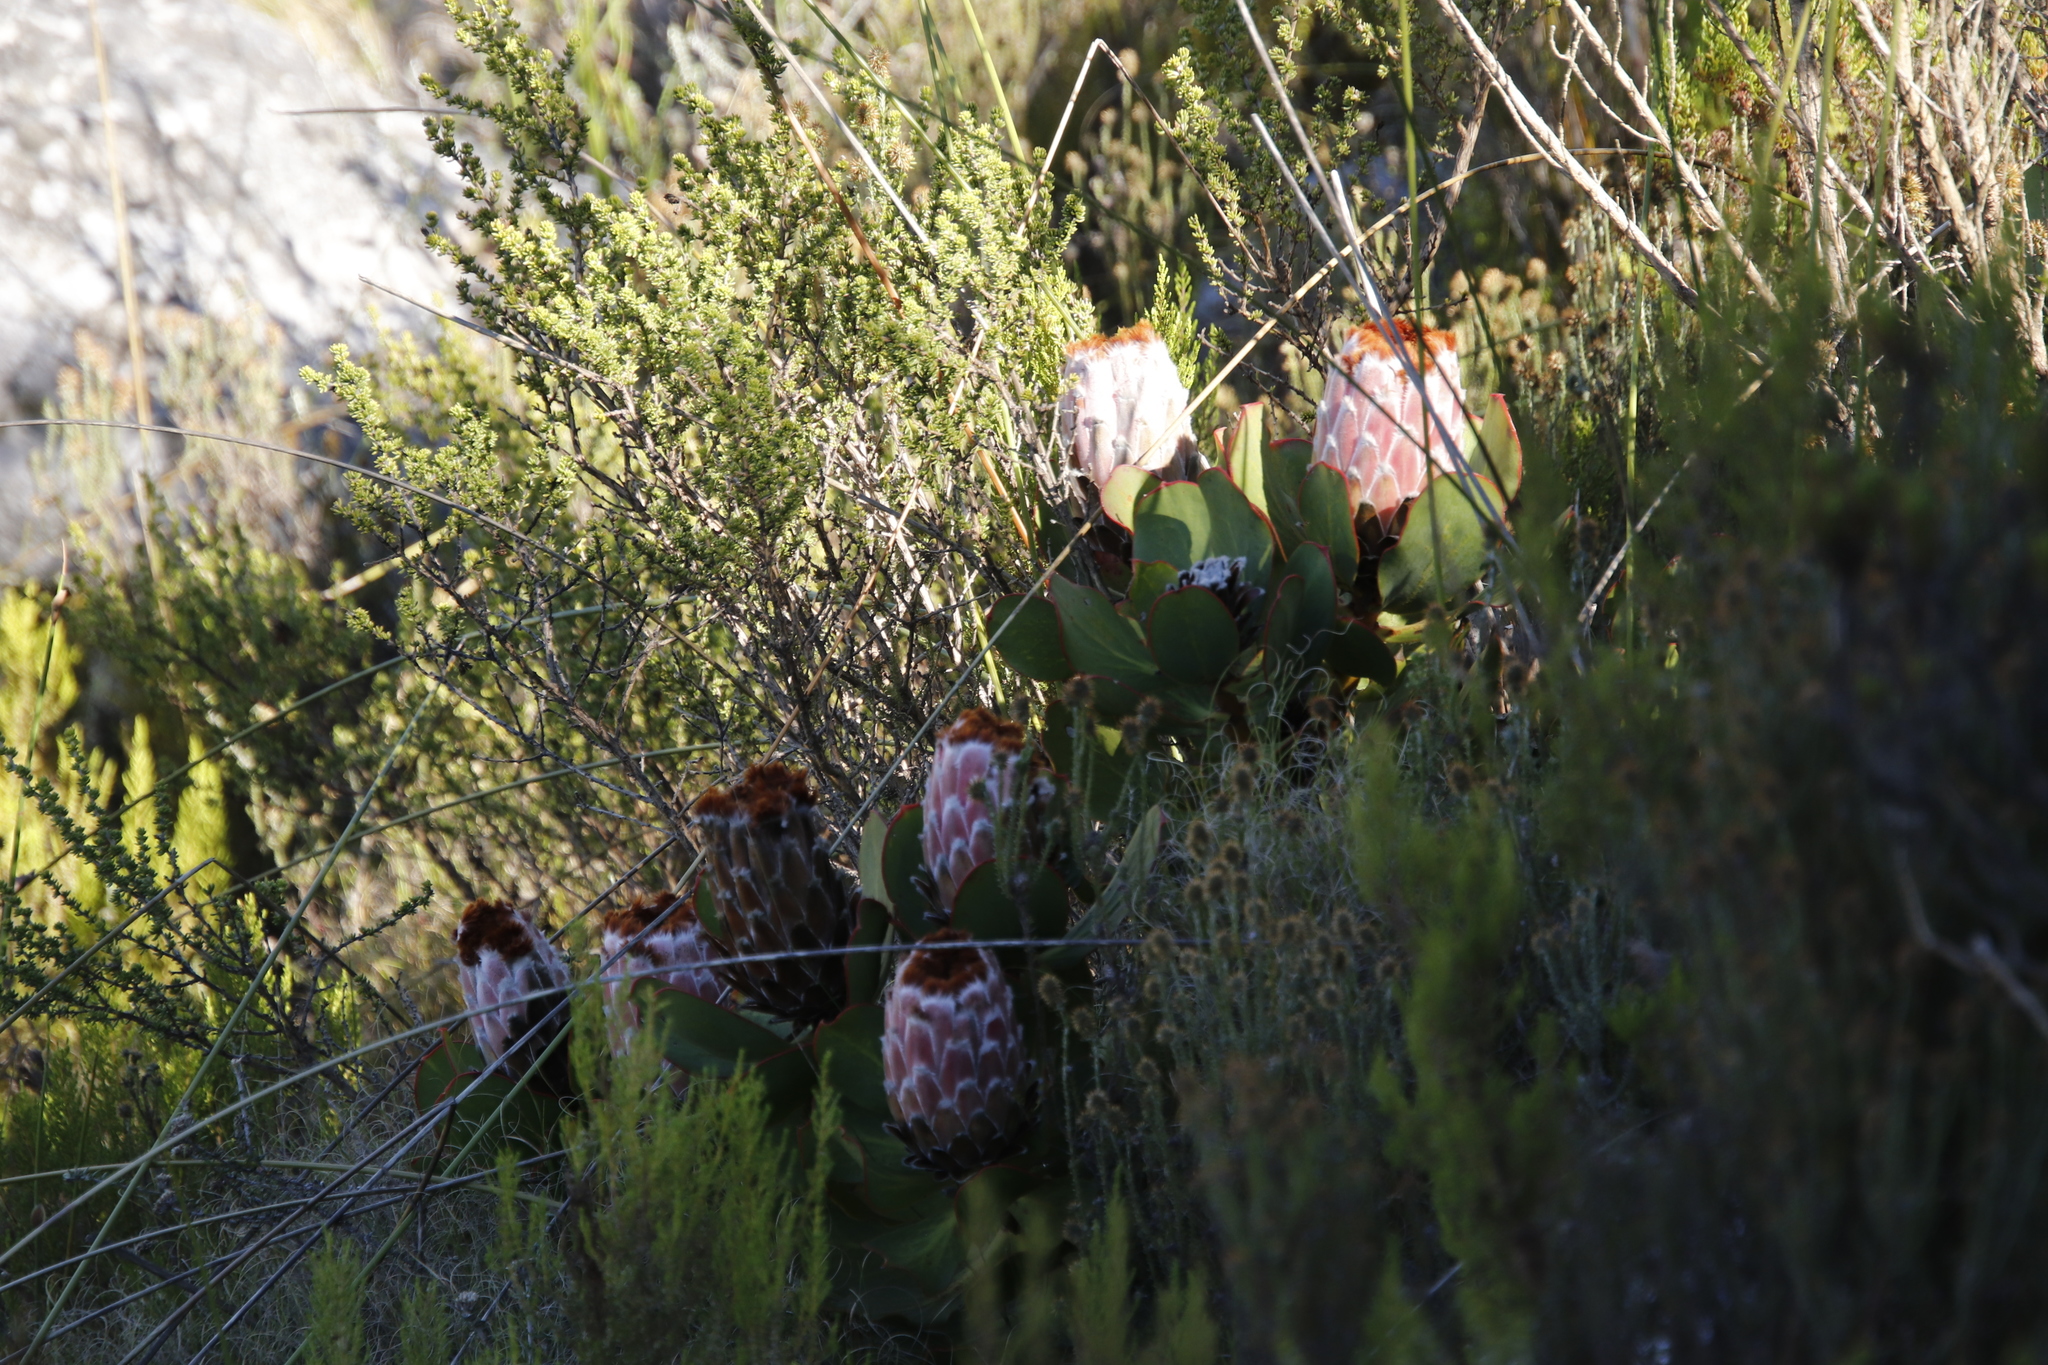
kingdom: Plantae
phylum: Tracheophyta
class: Magnoliopsida
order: Proteales
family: Proteaceae
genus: Protea
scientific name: Protea speciosa
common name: Brown-beard sugarbush
